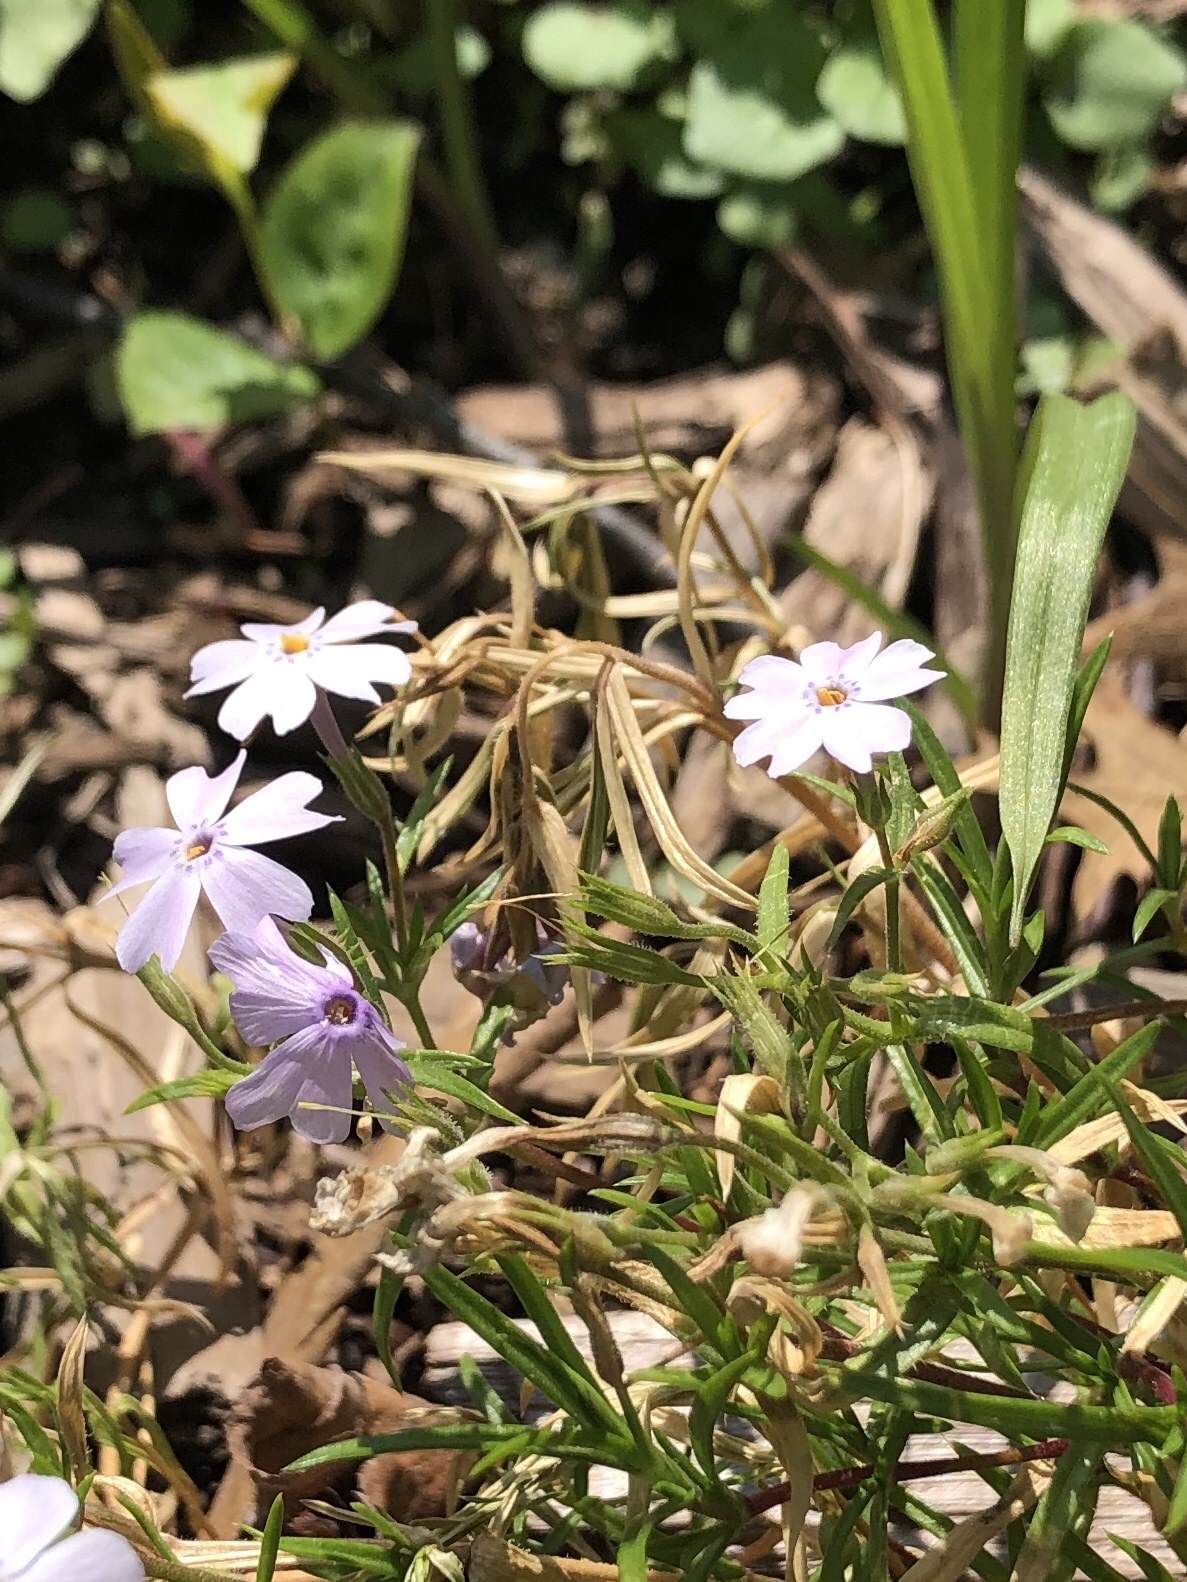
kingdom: Plantae
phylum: Tracheophyta
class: Magnoliopsida
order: Ericales
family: Polemoniaceae
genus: Phlox
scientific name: Phlox subulata
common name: Moss phlox
